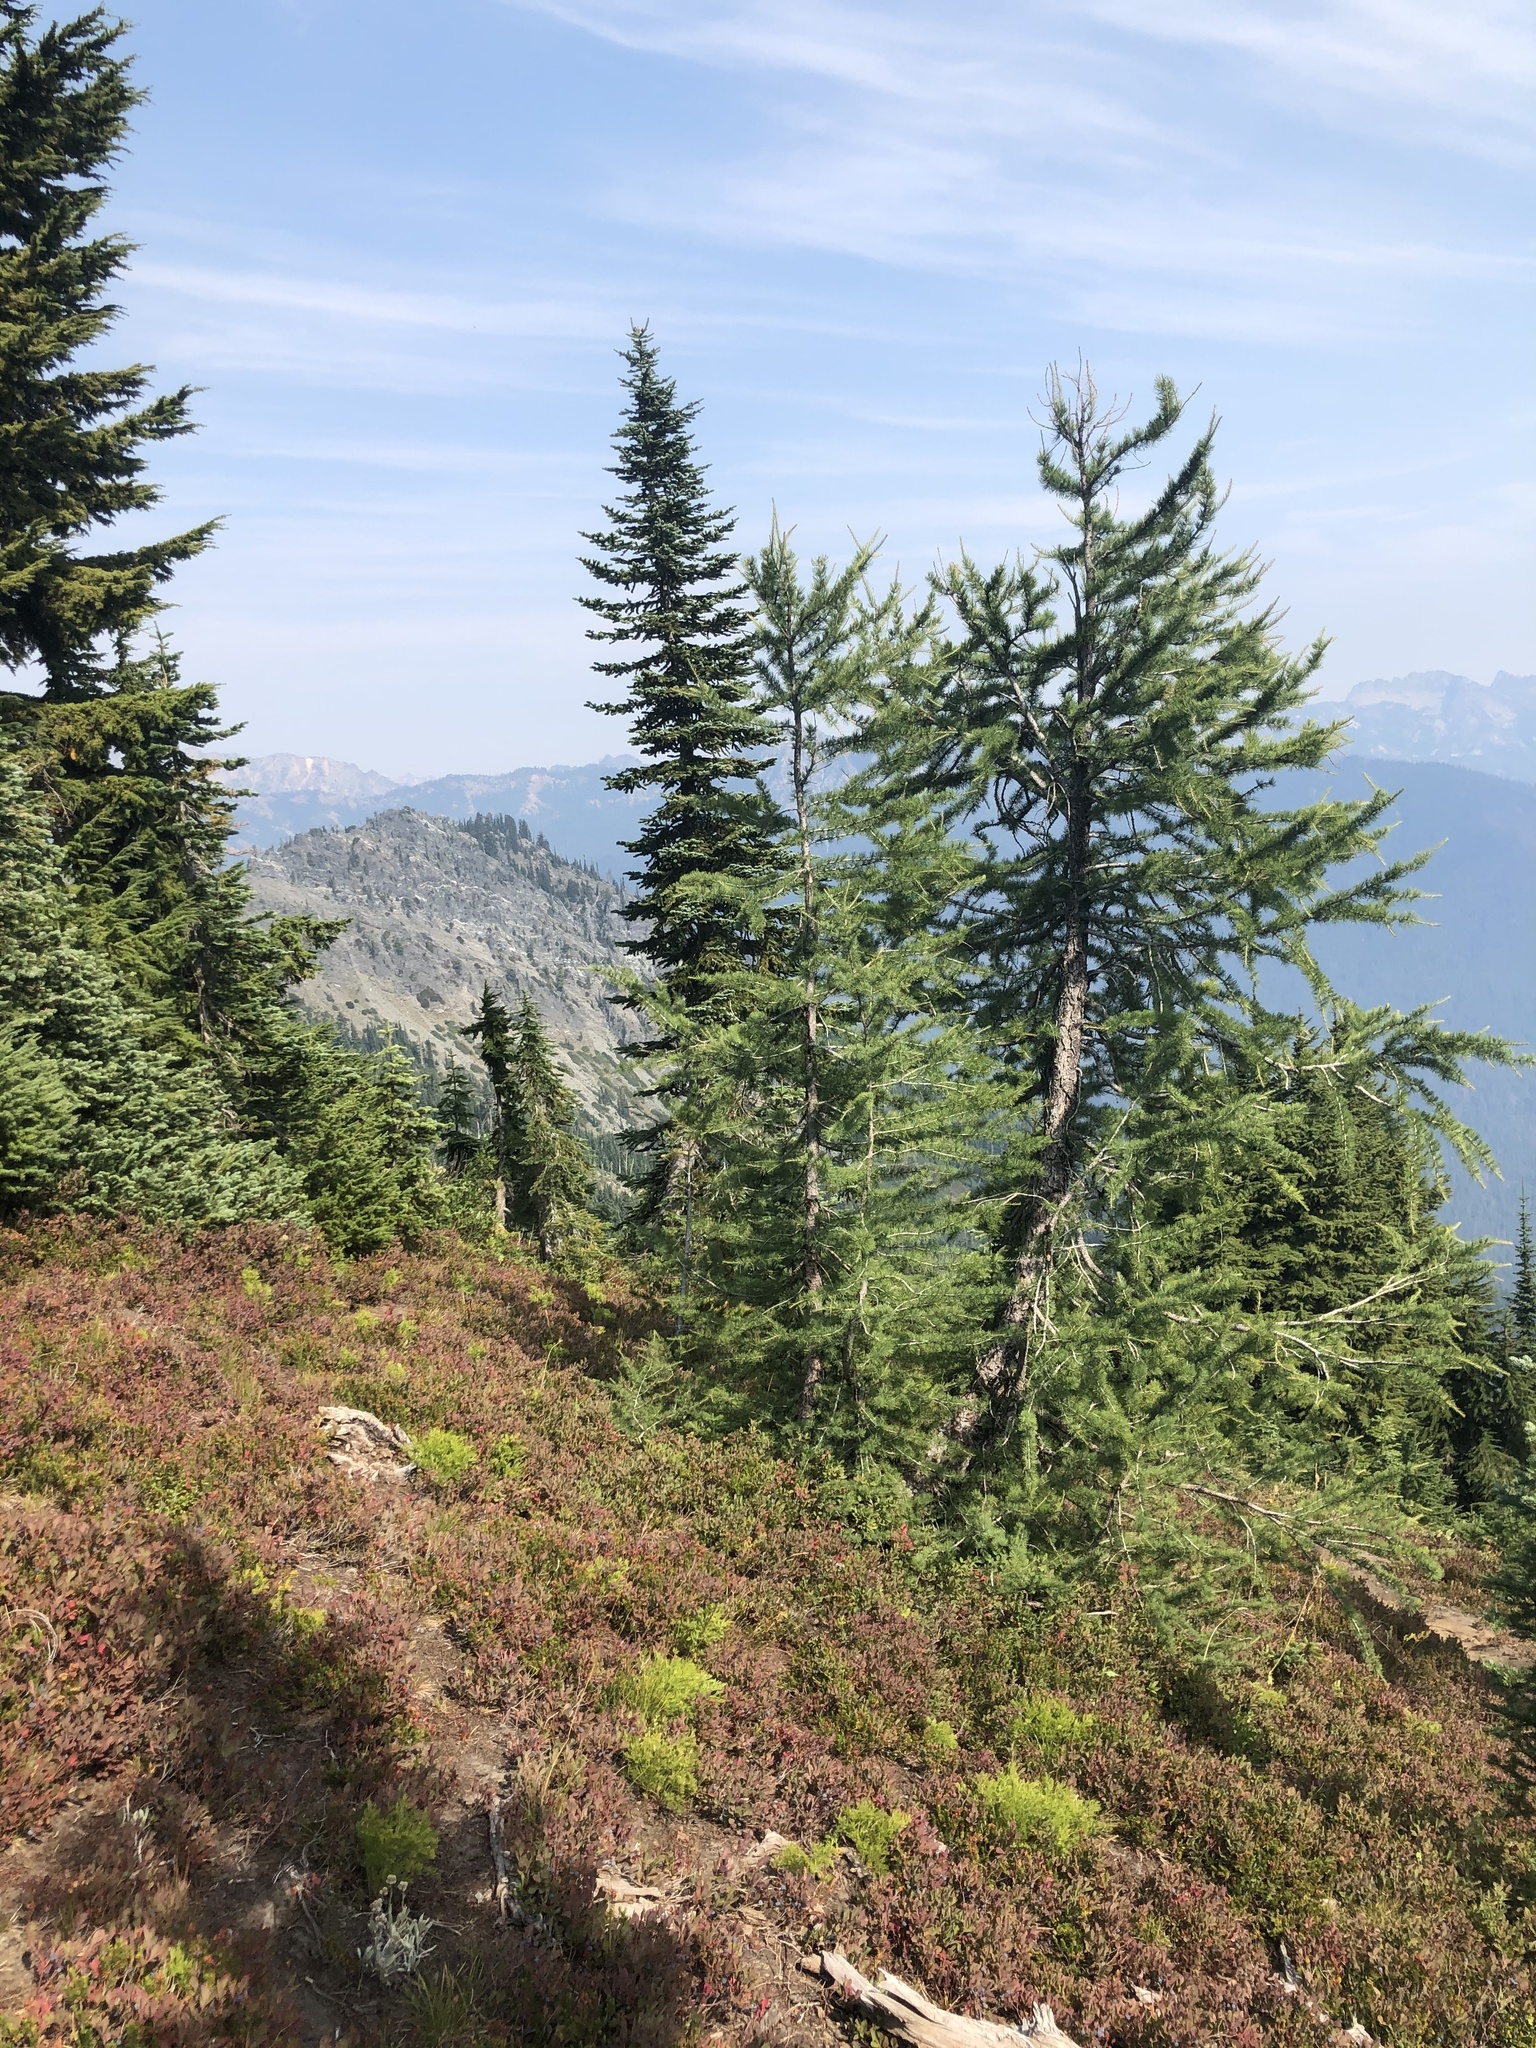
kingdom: Plantae
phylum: Tracheophyta
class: Pinopsida
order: Pinales
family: Pinaceae
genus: Larix
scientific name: Larix lyallii
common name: Alpine larch
